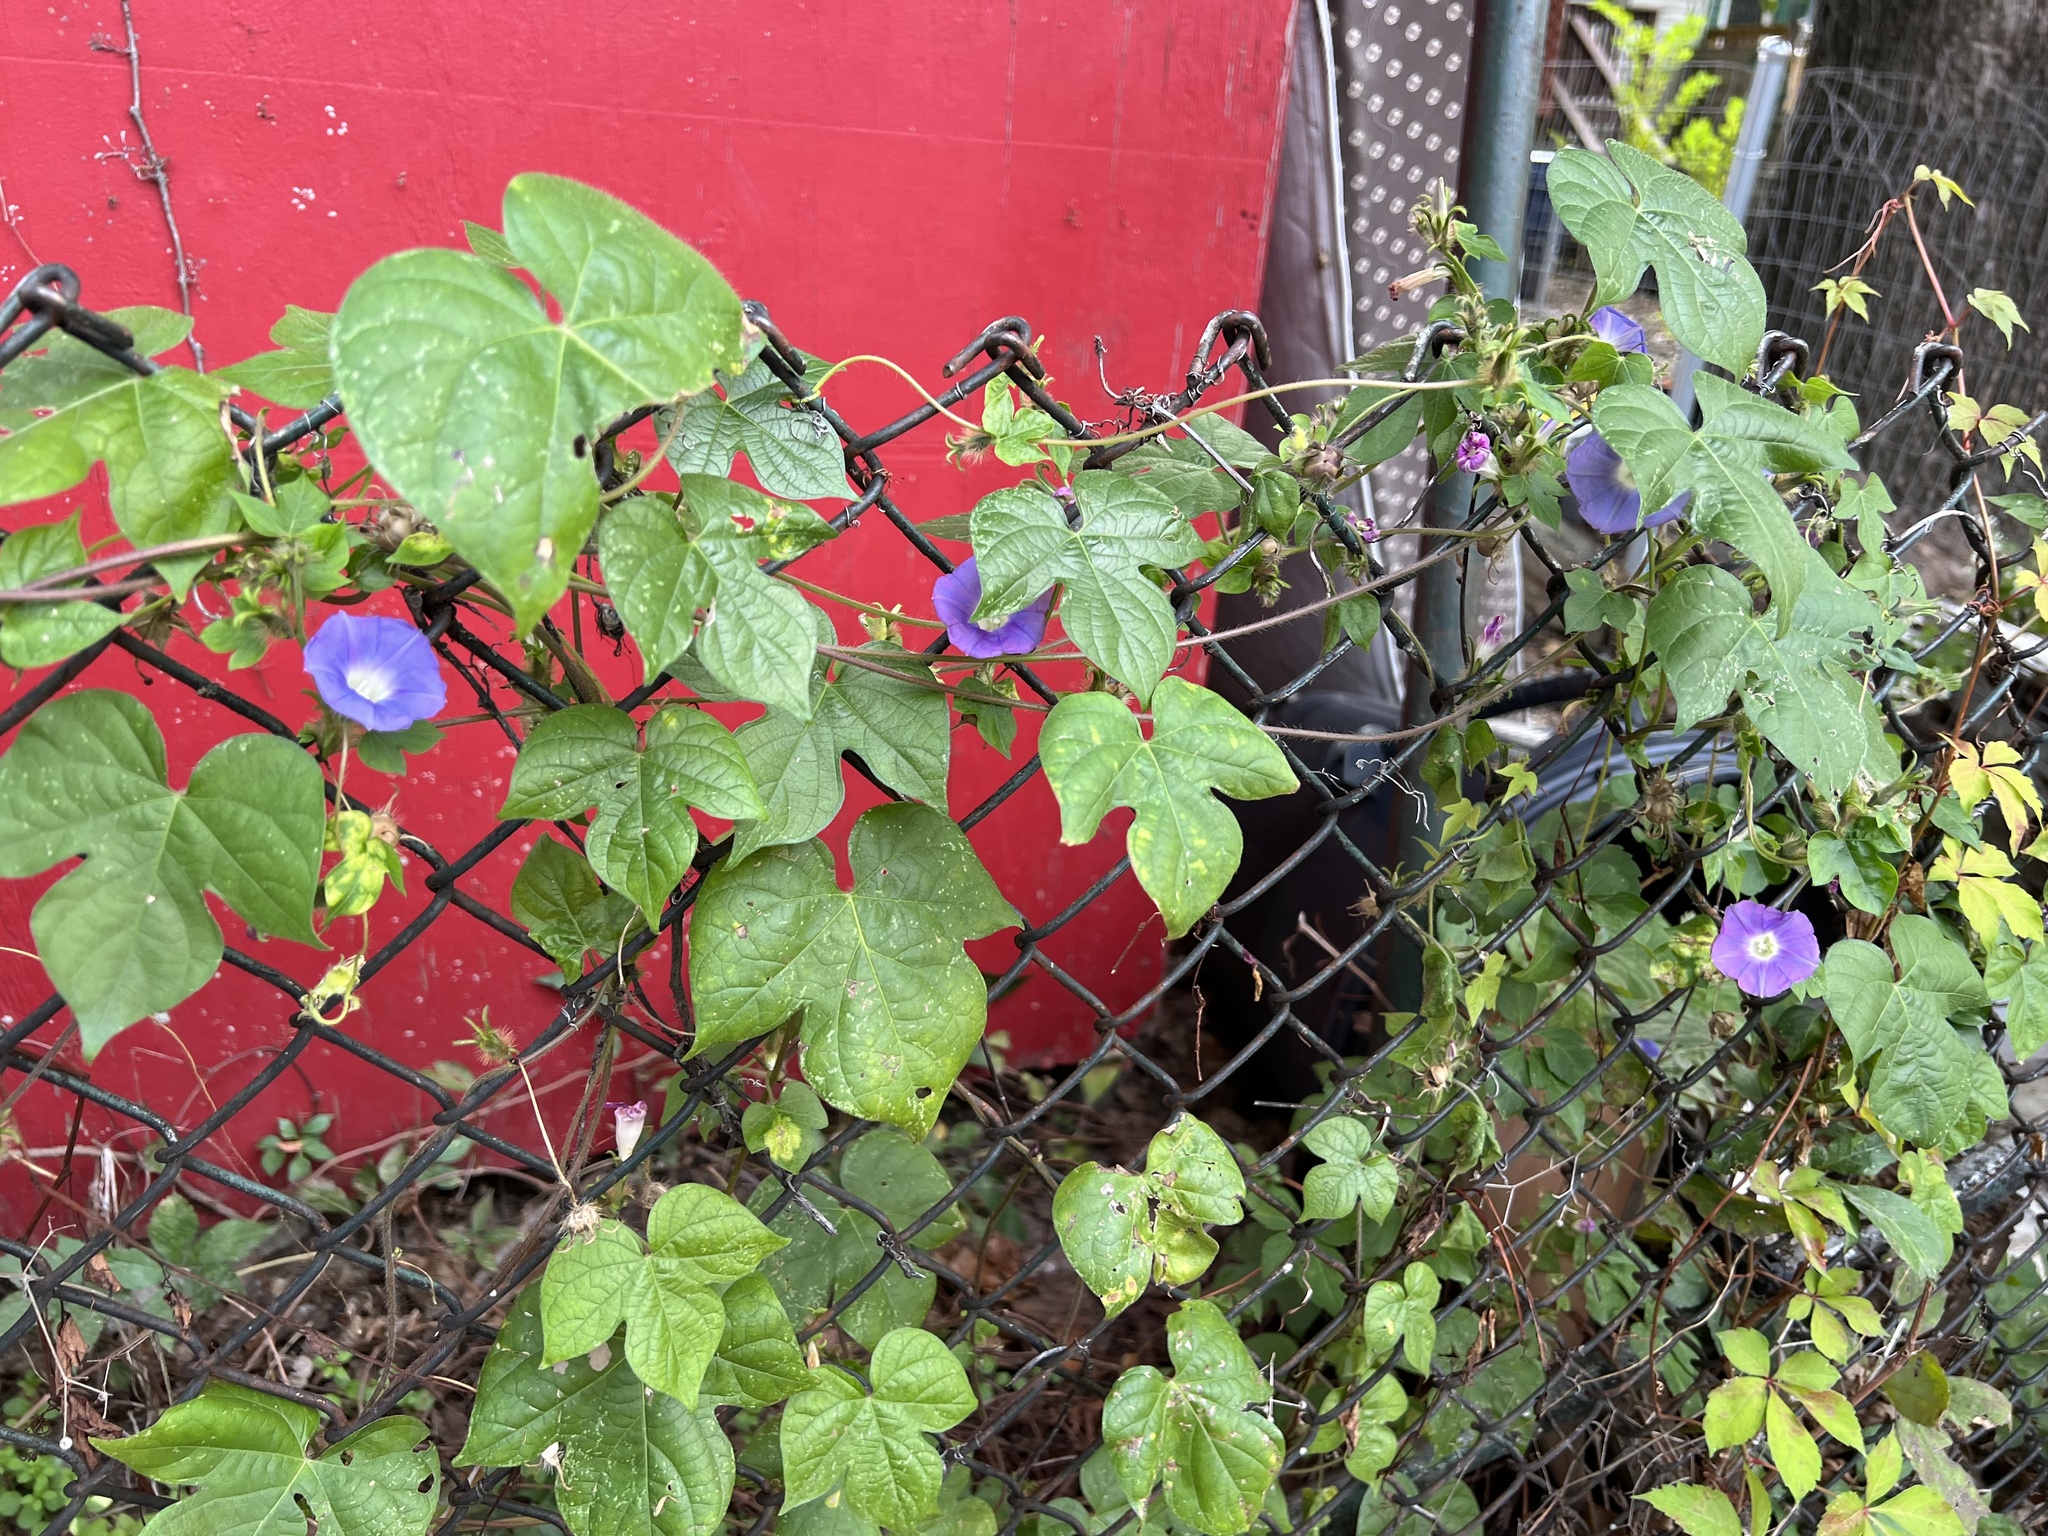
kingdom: Plantae
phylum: Tracheophyta
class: Magnoliopsida
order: Solanales
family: Convolvulaceae
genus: Ipomoea
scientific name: Ipomoea hederacea
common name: Ivy-leaved morning-glory
